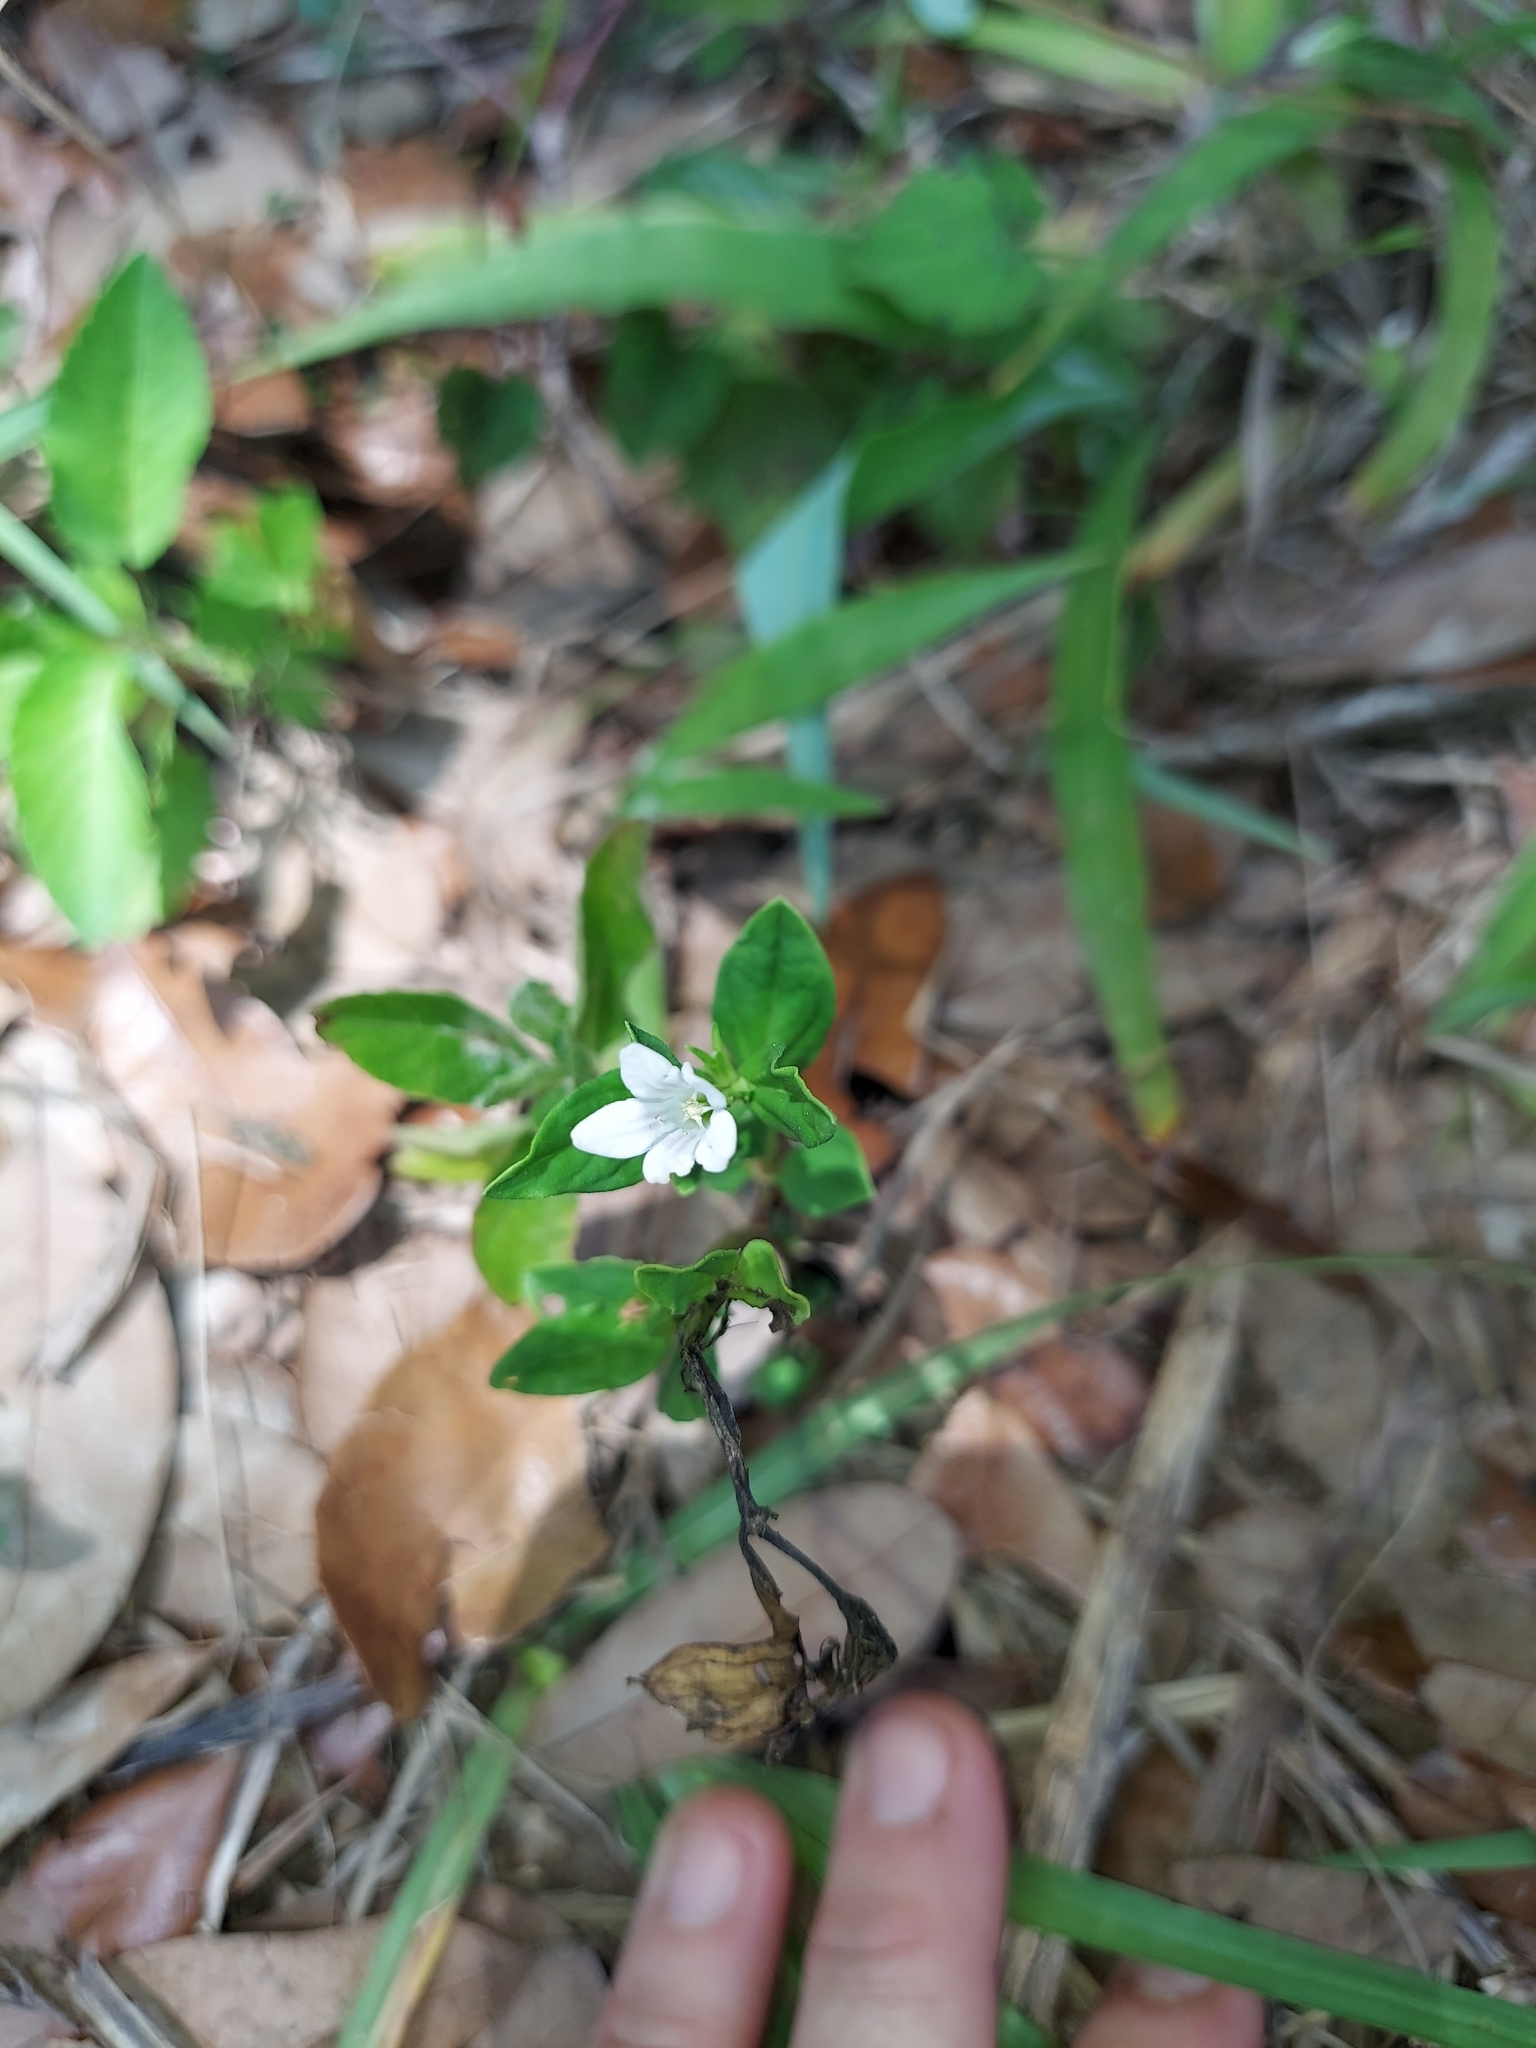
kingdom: Plantae
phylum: Tracheophyta
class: Magnoliopsida
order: Gentianales
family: Loganiaceae
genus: Spigelia
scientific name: Spigelia loganioides
